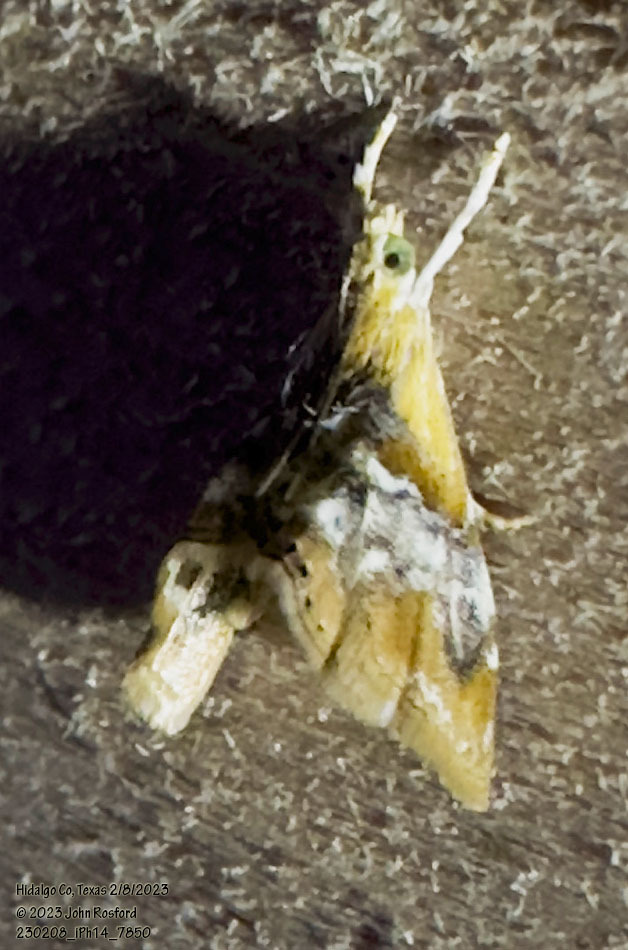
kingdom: Animalia
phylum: Arthropoda
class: Insecta
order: Lepidoptera
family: Crambidae
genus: Dicymolomia
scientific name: Dicymolomia julianalis
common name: Julia's dicymolomia moth
